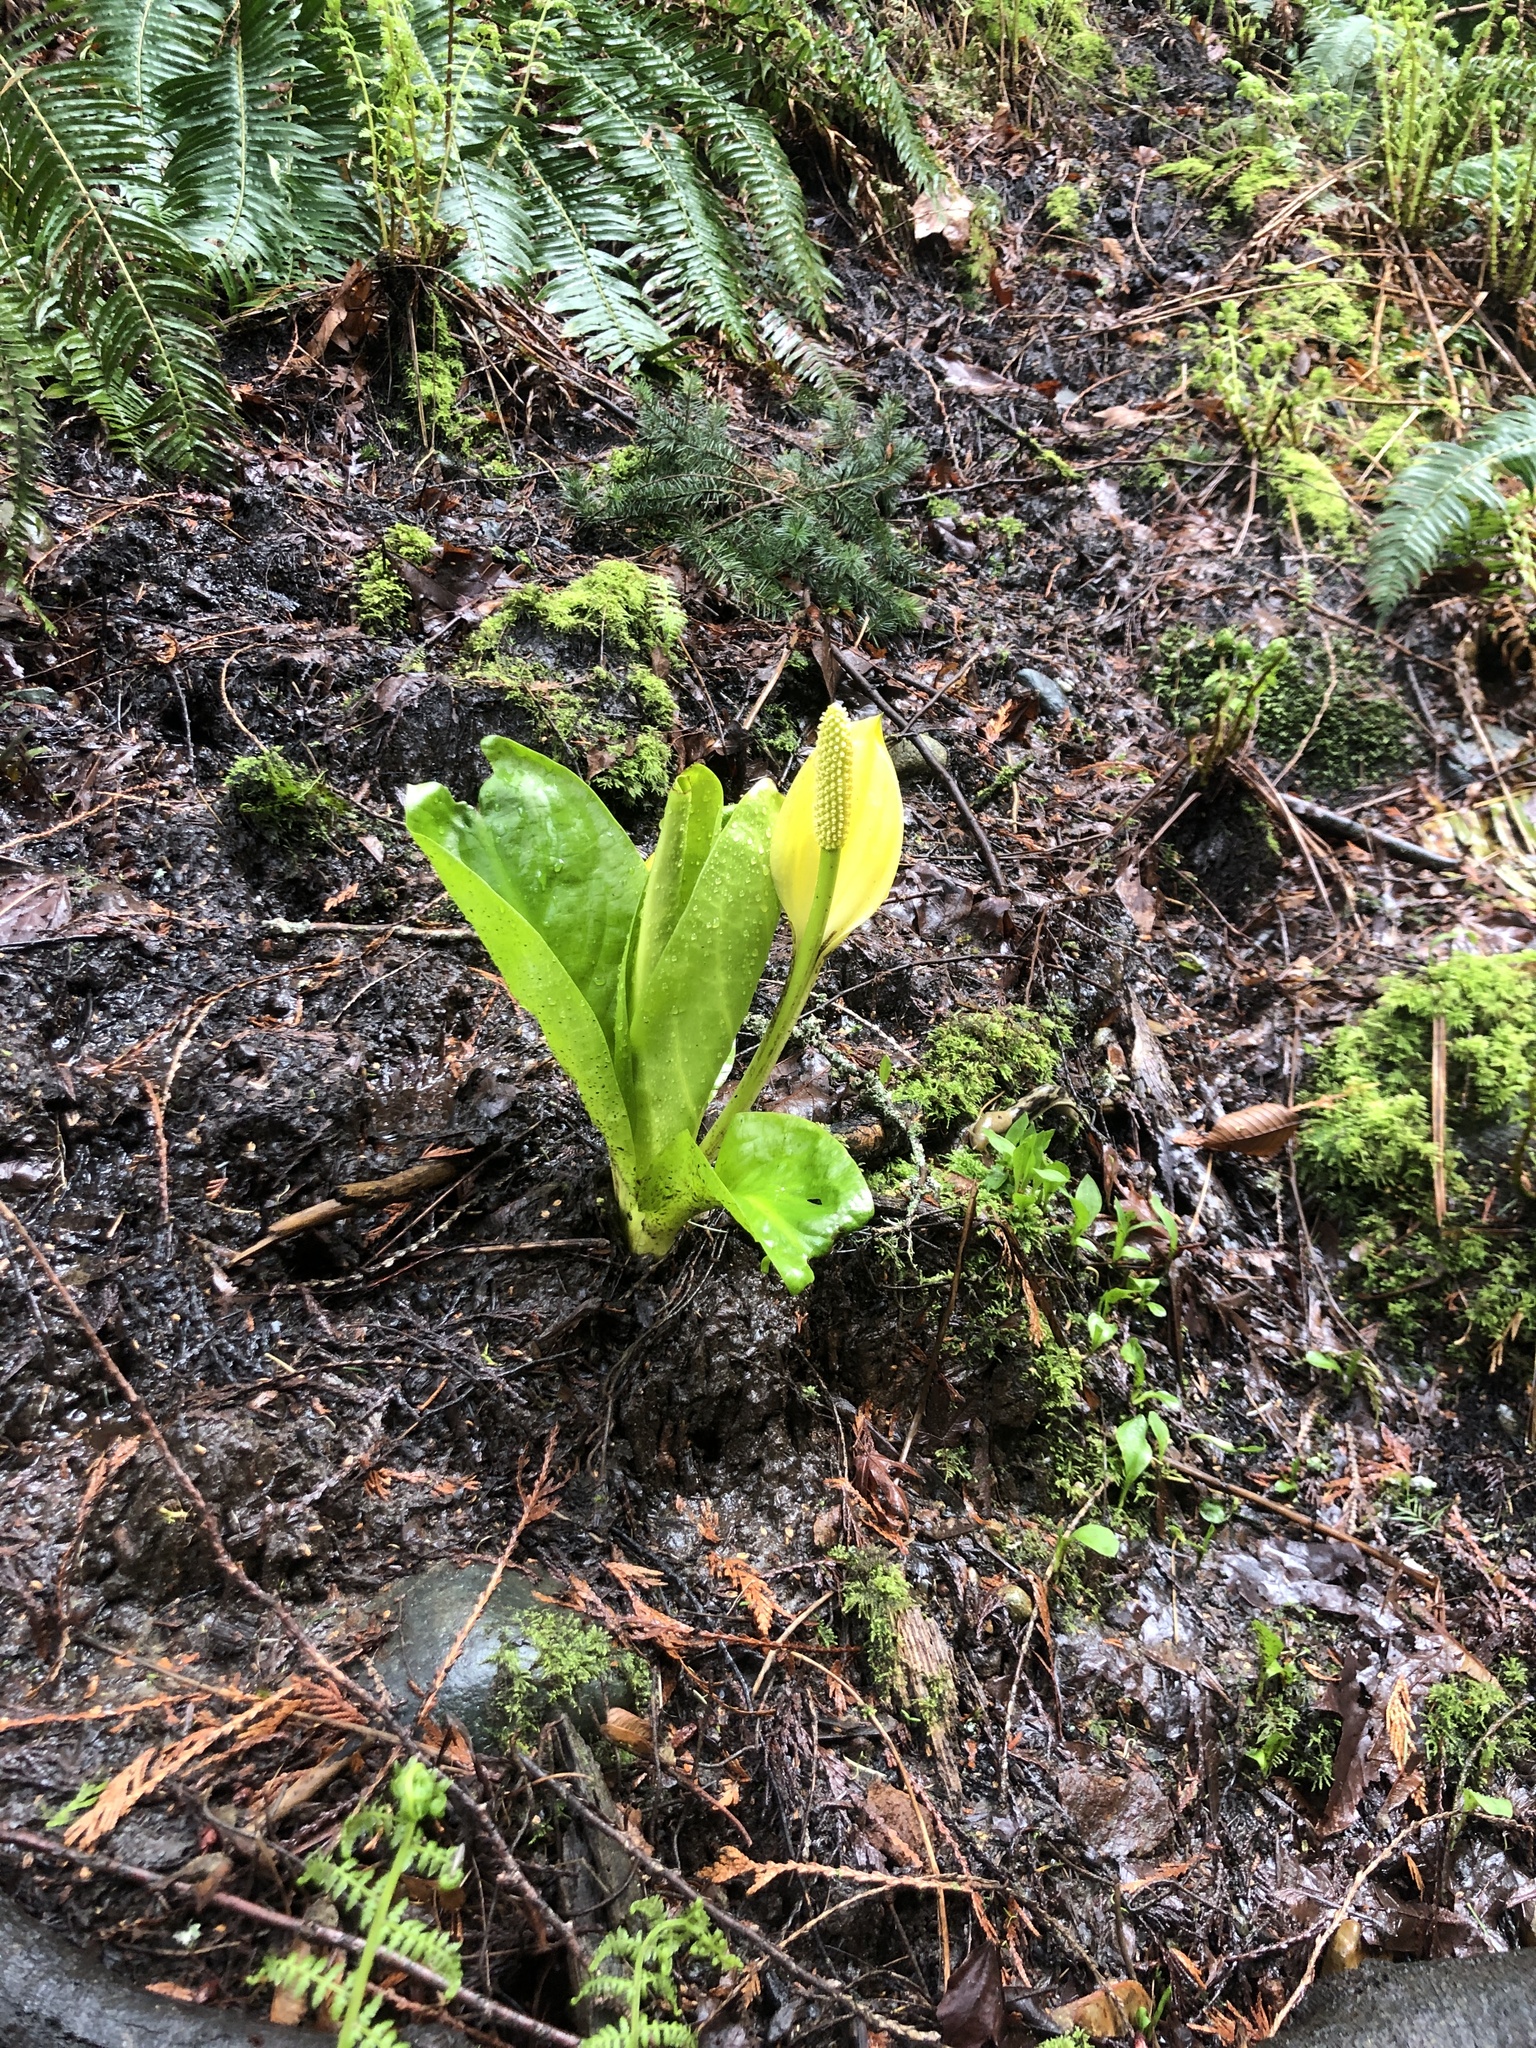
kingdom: Plantae
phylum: Tracheophyta
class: Liliopsida
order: Alismatales
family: Araceae
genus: Lysichiton
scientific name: Lysichiton americanus
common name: American skunk cabbage
